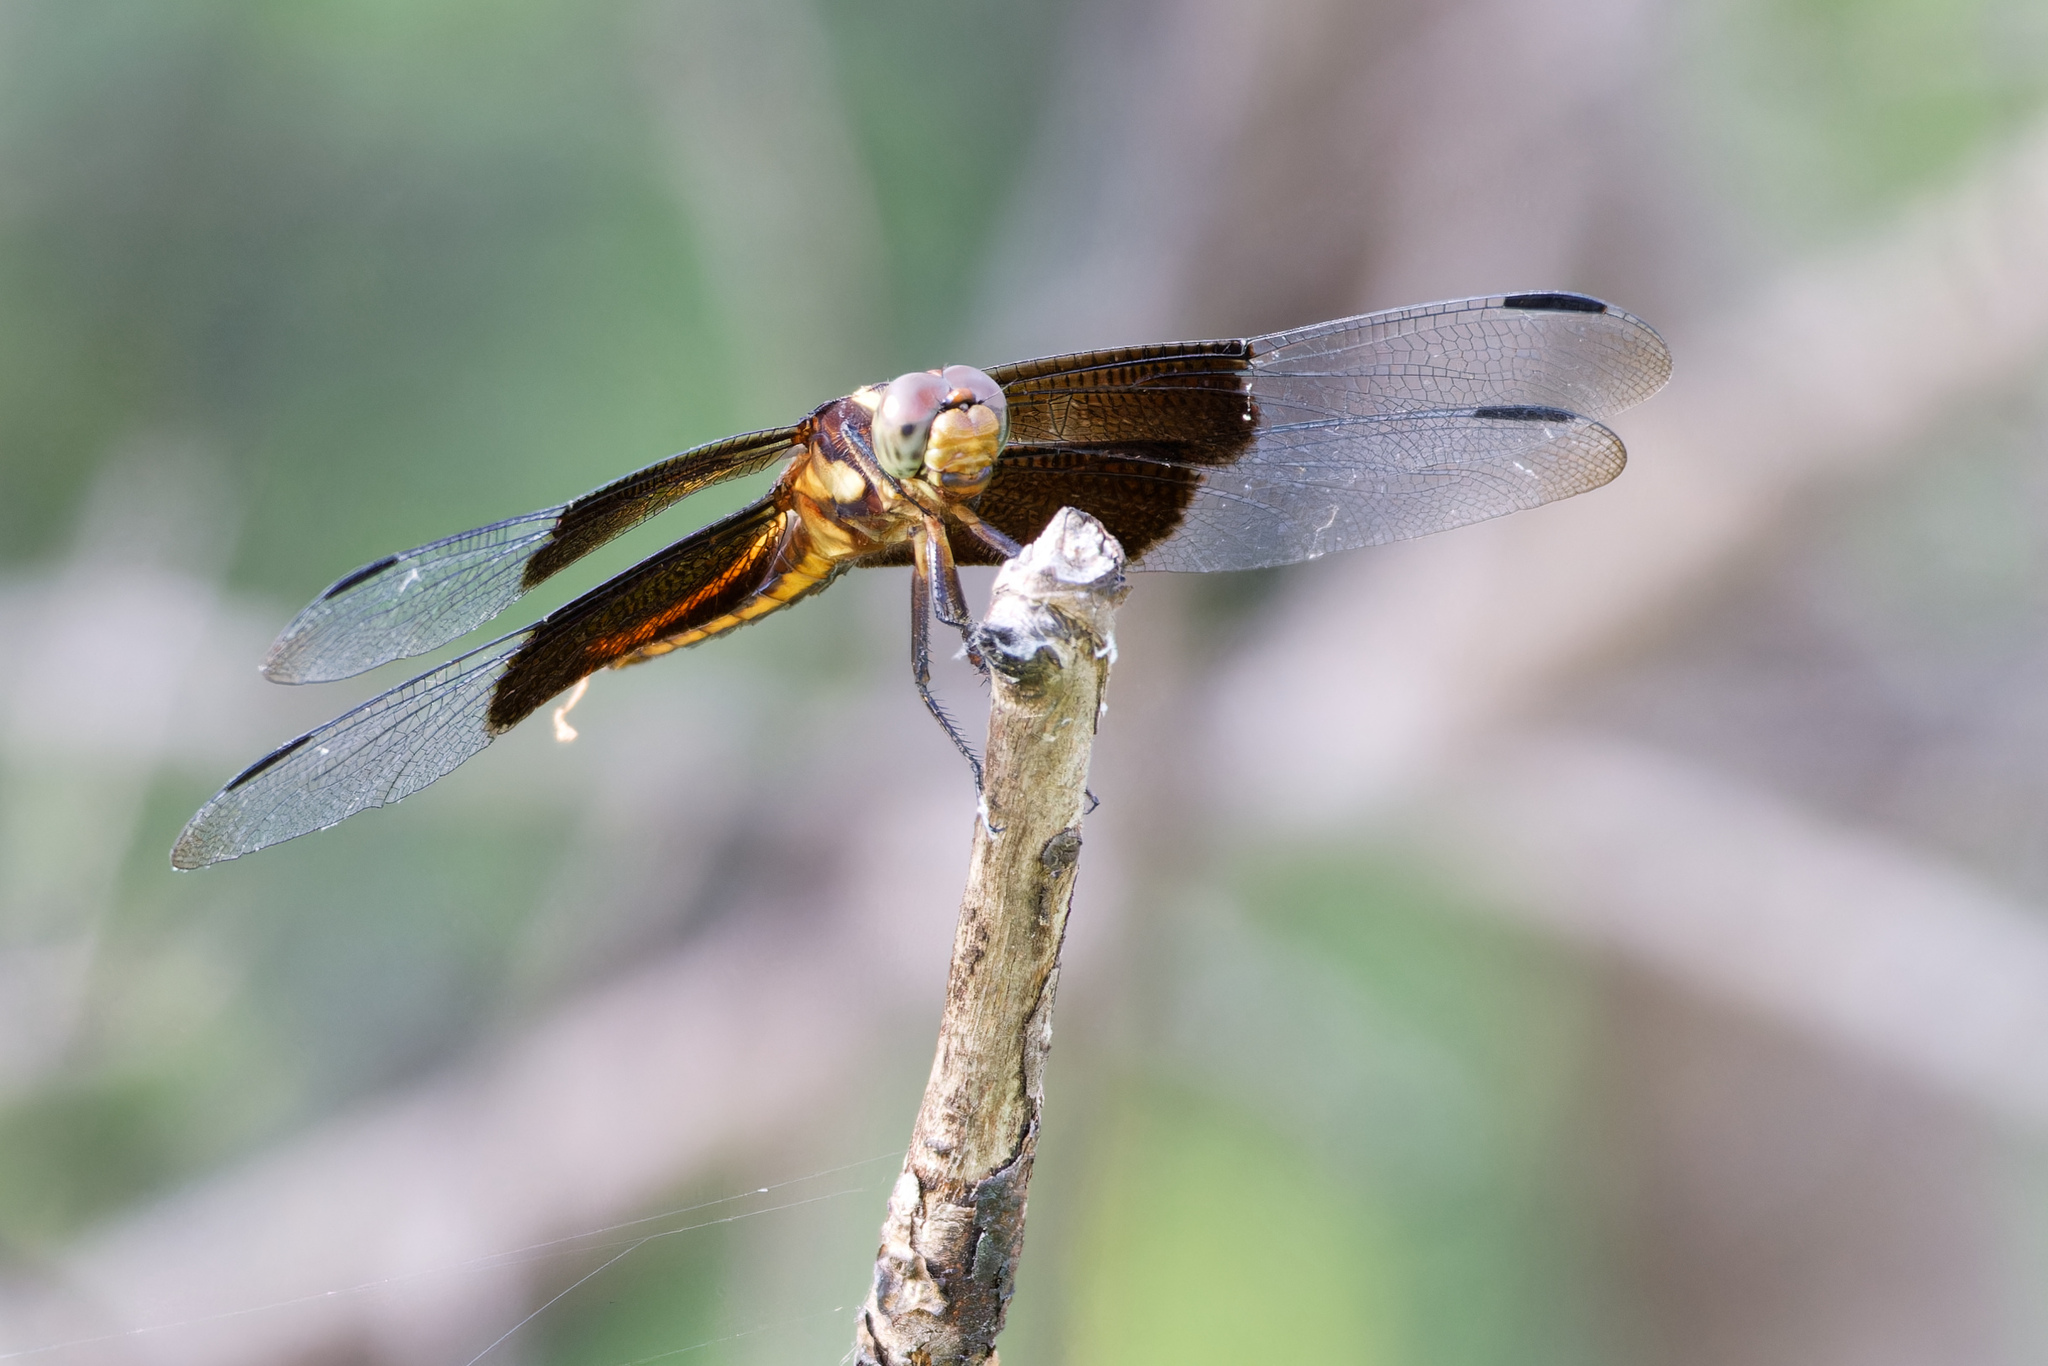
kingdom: Animalia
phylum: Arthropoda
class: Insecta
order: Odonata
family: Libellulidae
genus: Libellula
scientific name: Libellula luctuosa
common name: Widow skimmer
